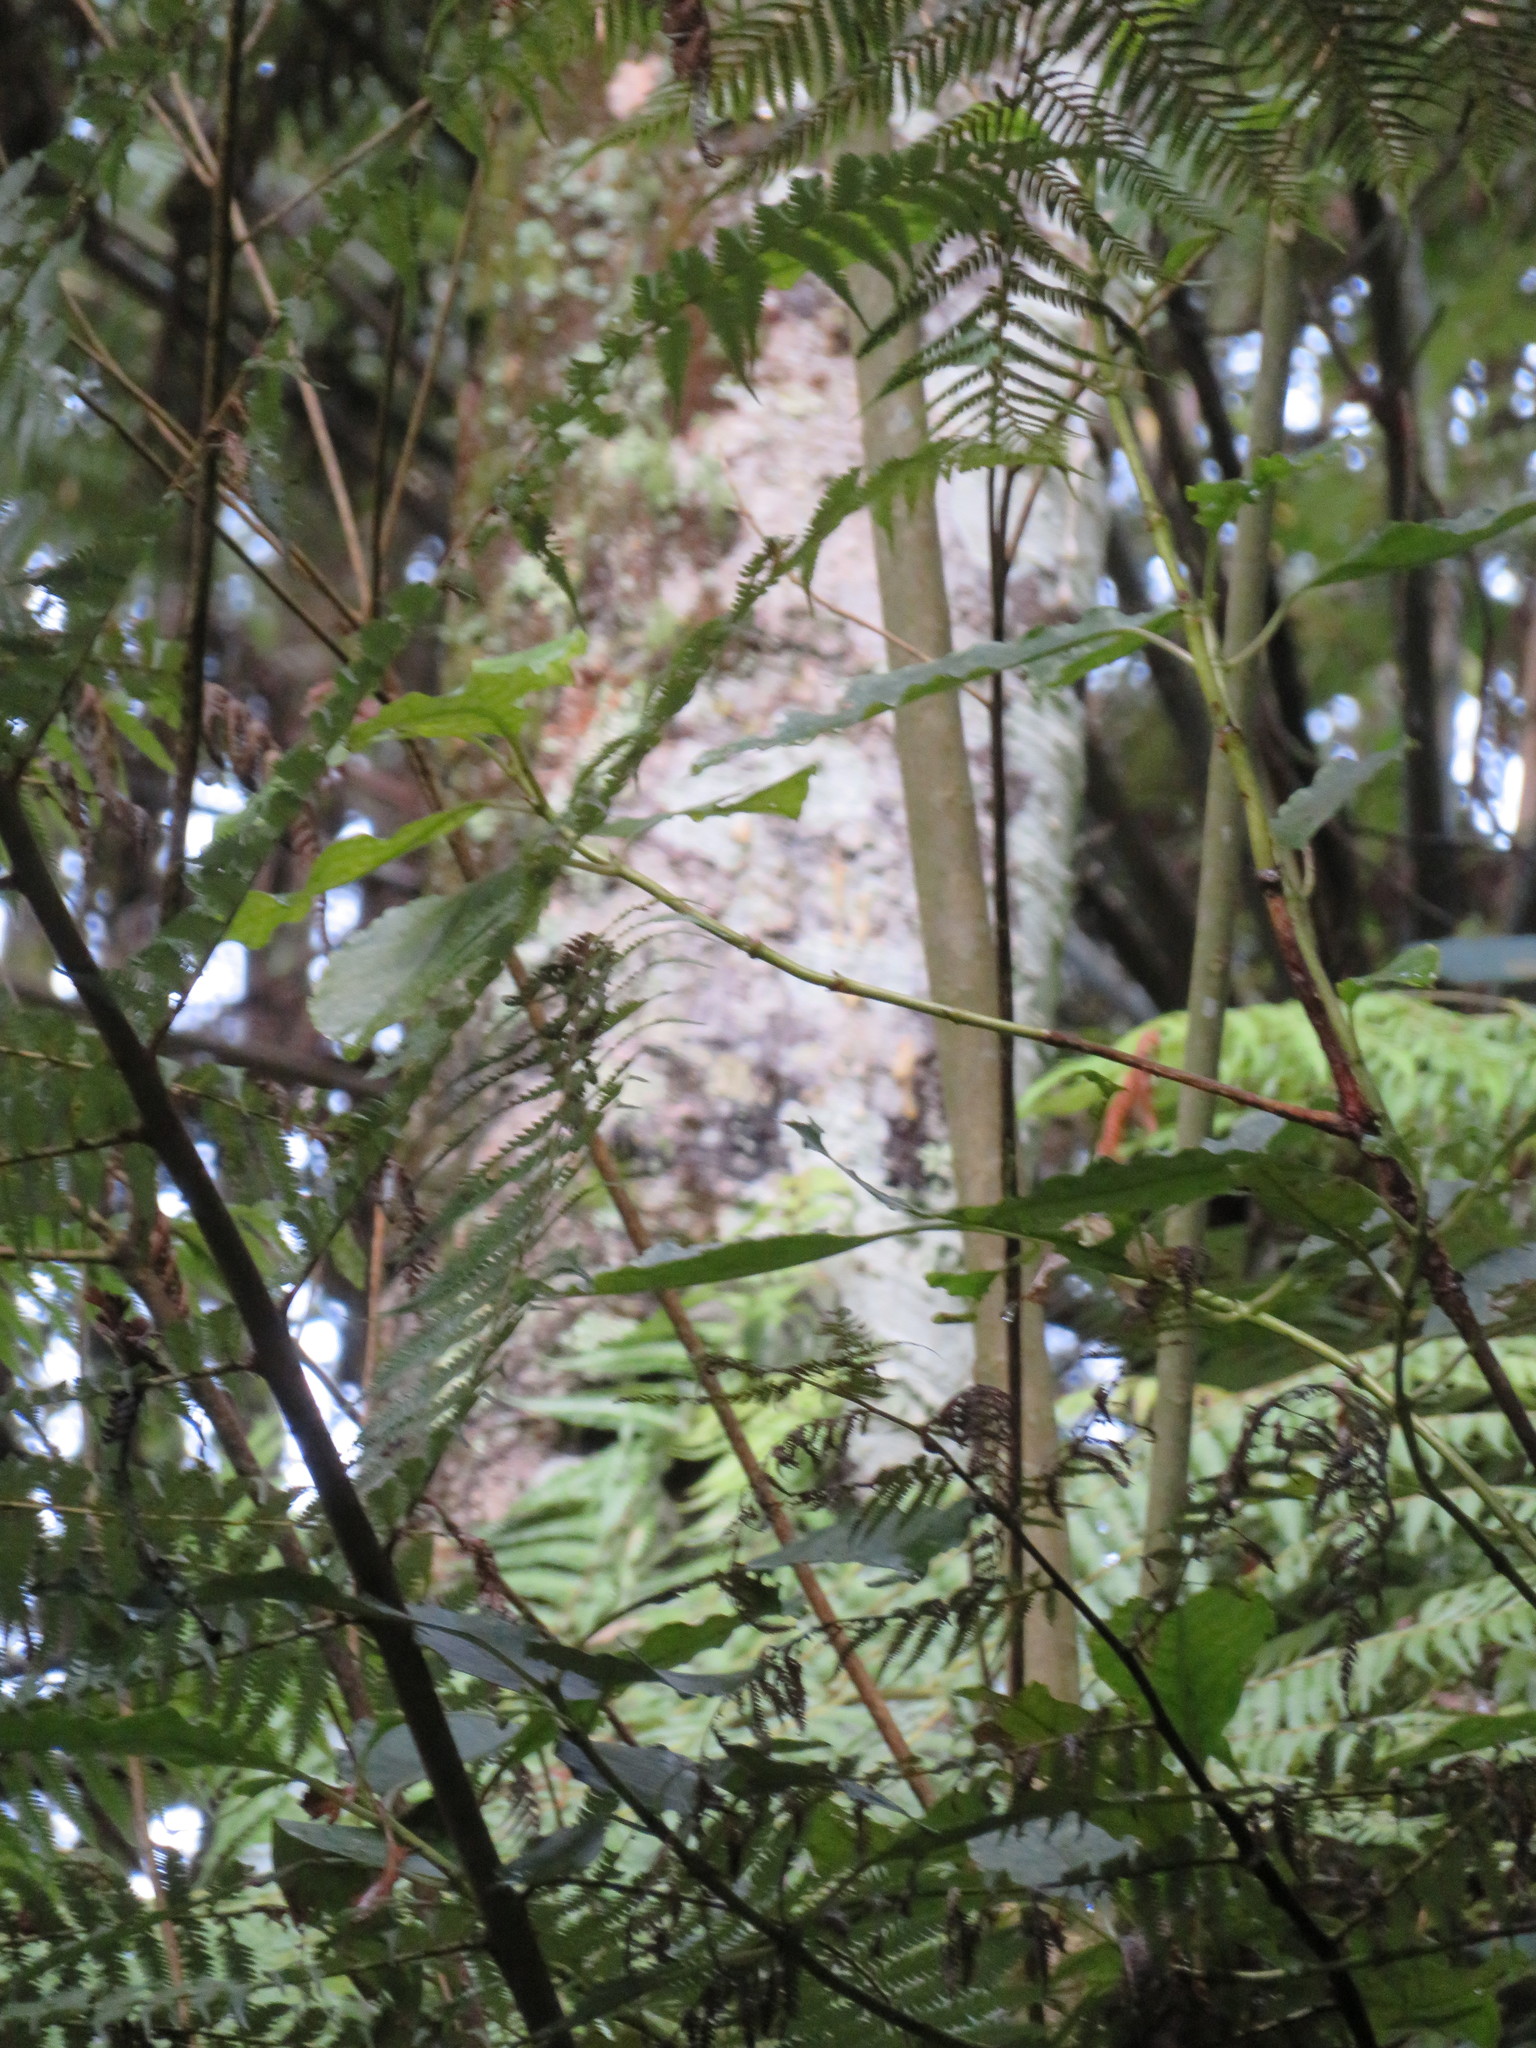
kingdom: Plantae
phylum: Tracheophyta
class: Pinopsida
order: Pinales
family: Phyllocladaceae
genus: Phyllocladus
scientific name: Phyllocladus trichomanoides
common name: Celery pine
